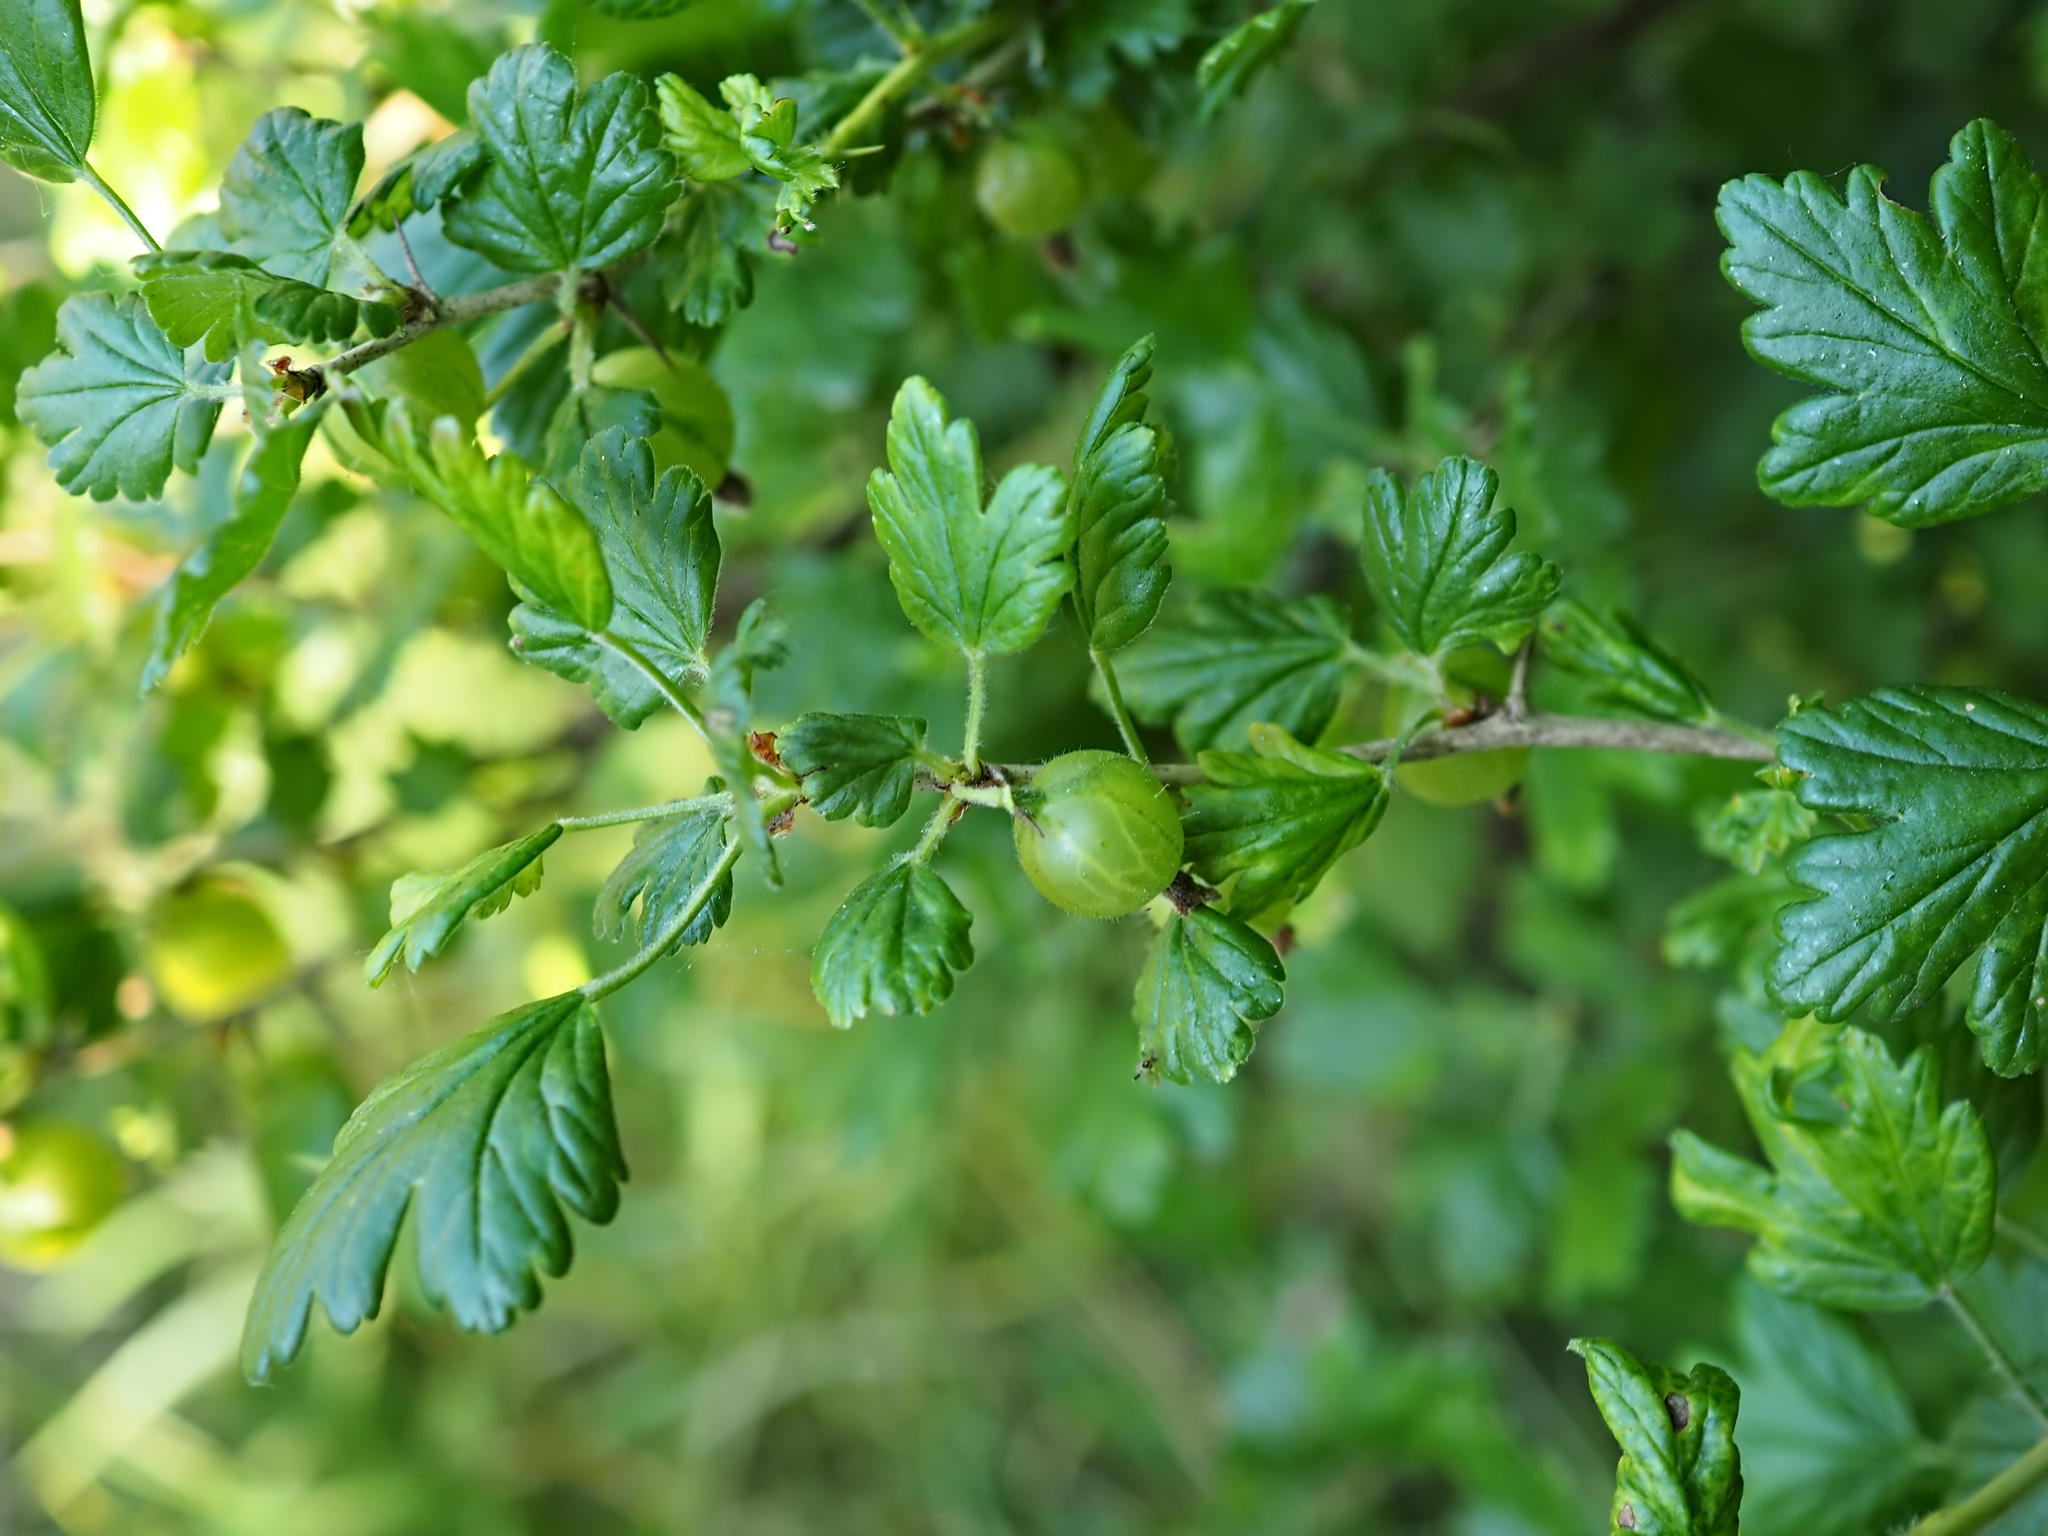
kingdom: Plantae
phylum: Tracheophyta
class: Magnoliopsida
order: Saxifragales
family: Grossulariaceae
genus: Ribes
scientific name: Ribes uva-crispa
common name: Gooseberry
